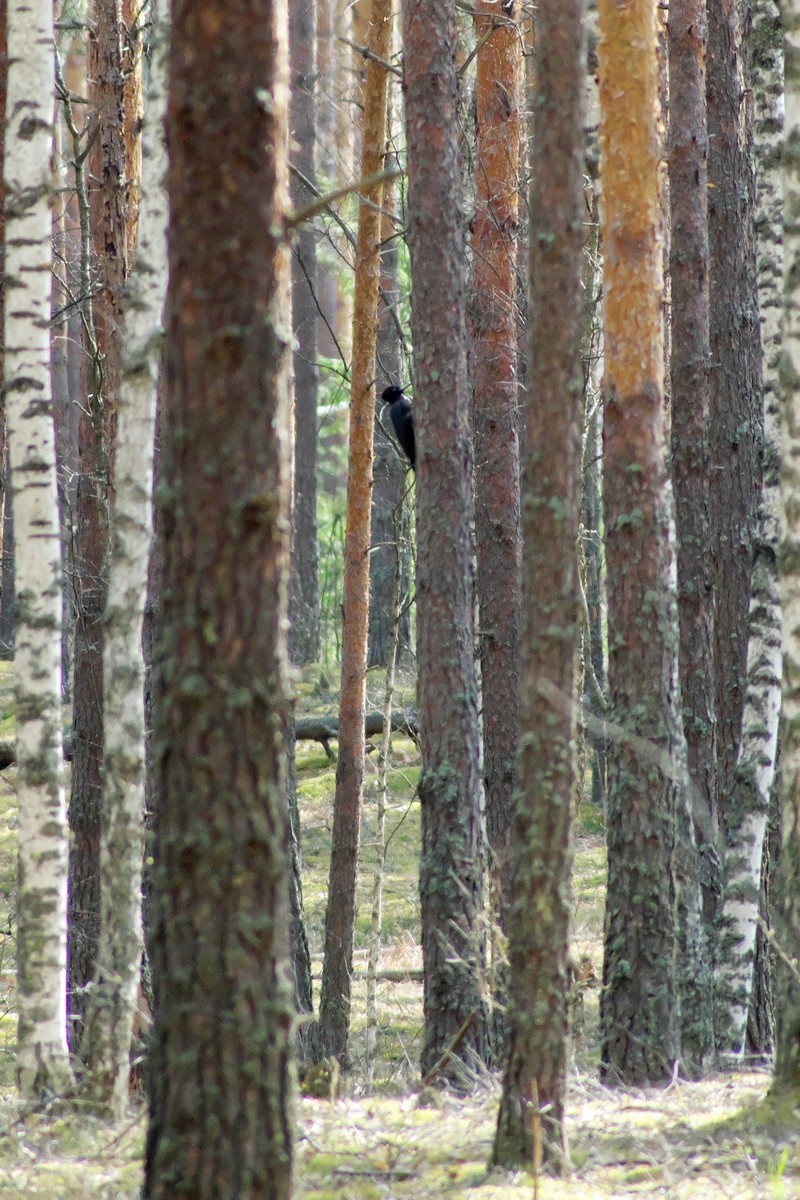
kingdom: Animalia
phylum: Chordata
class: Aves
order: Piciformes
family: Picidae
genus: Dryocopus
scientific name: Dryocopus martius
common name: Black woodpecker
